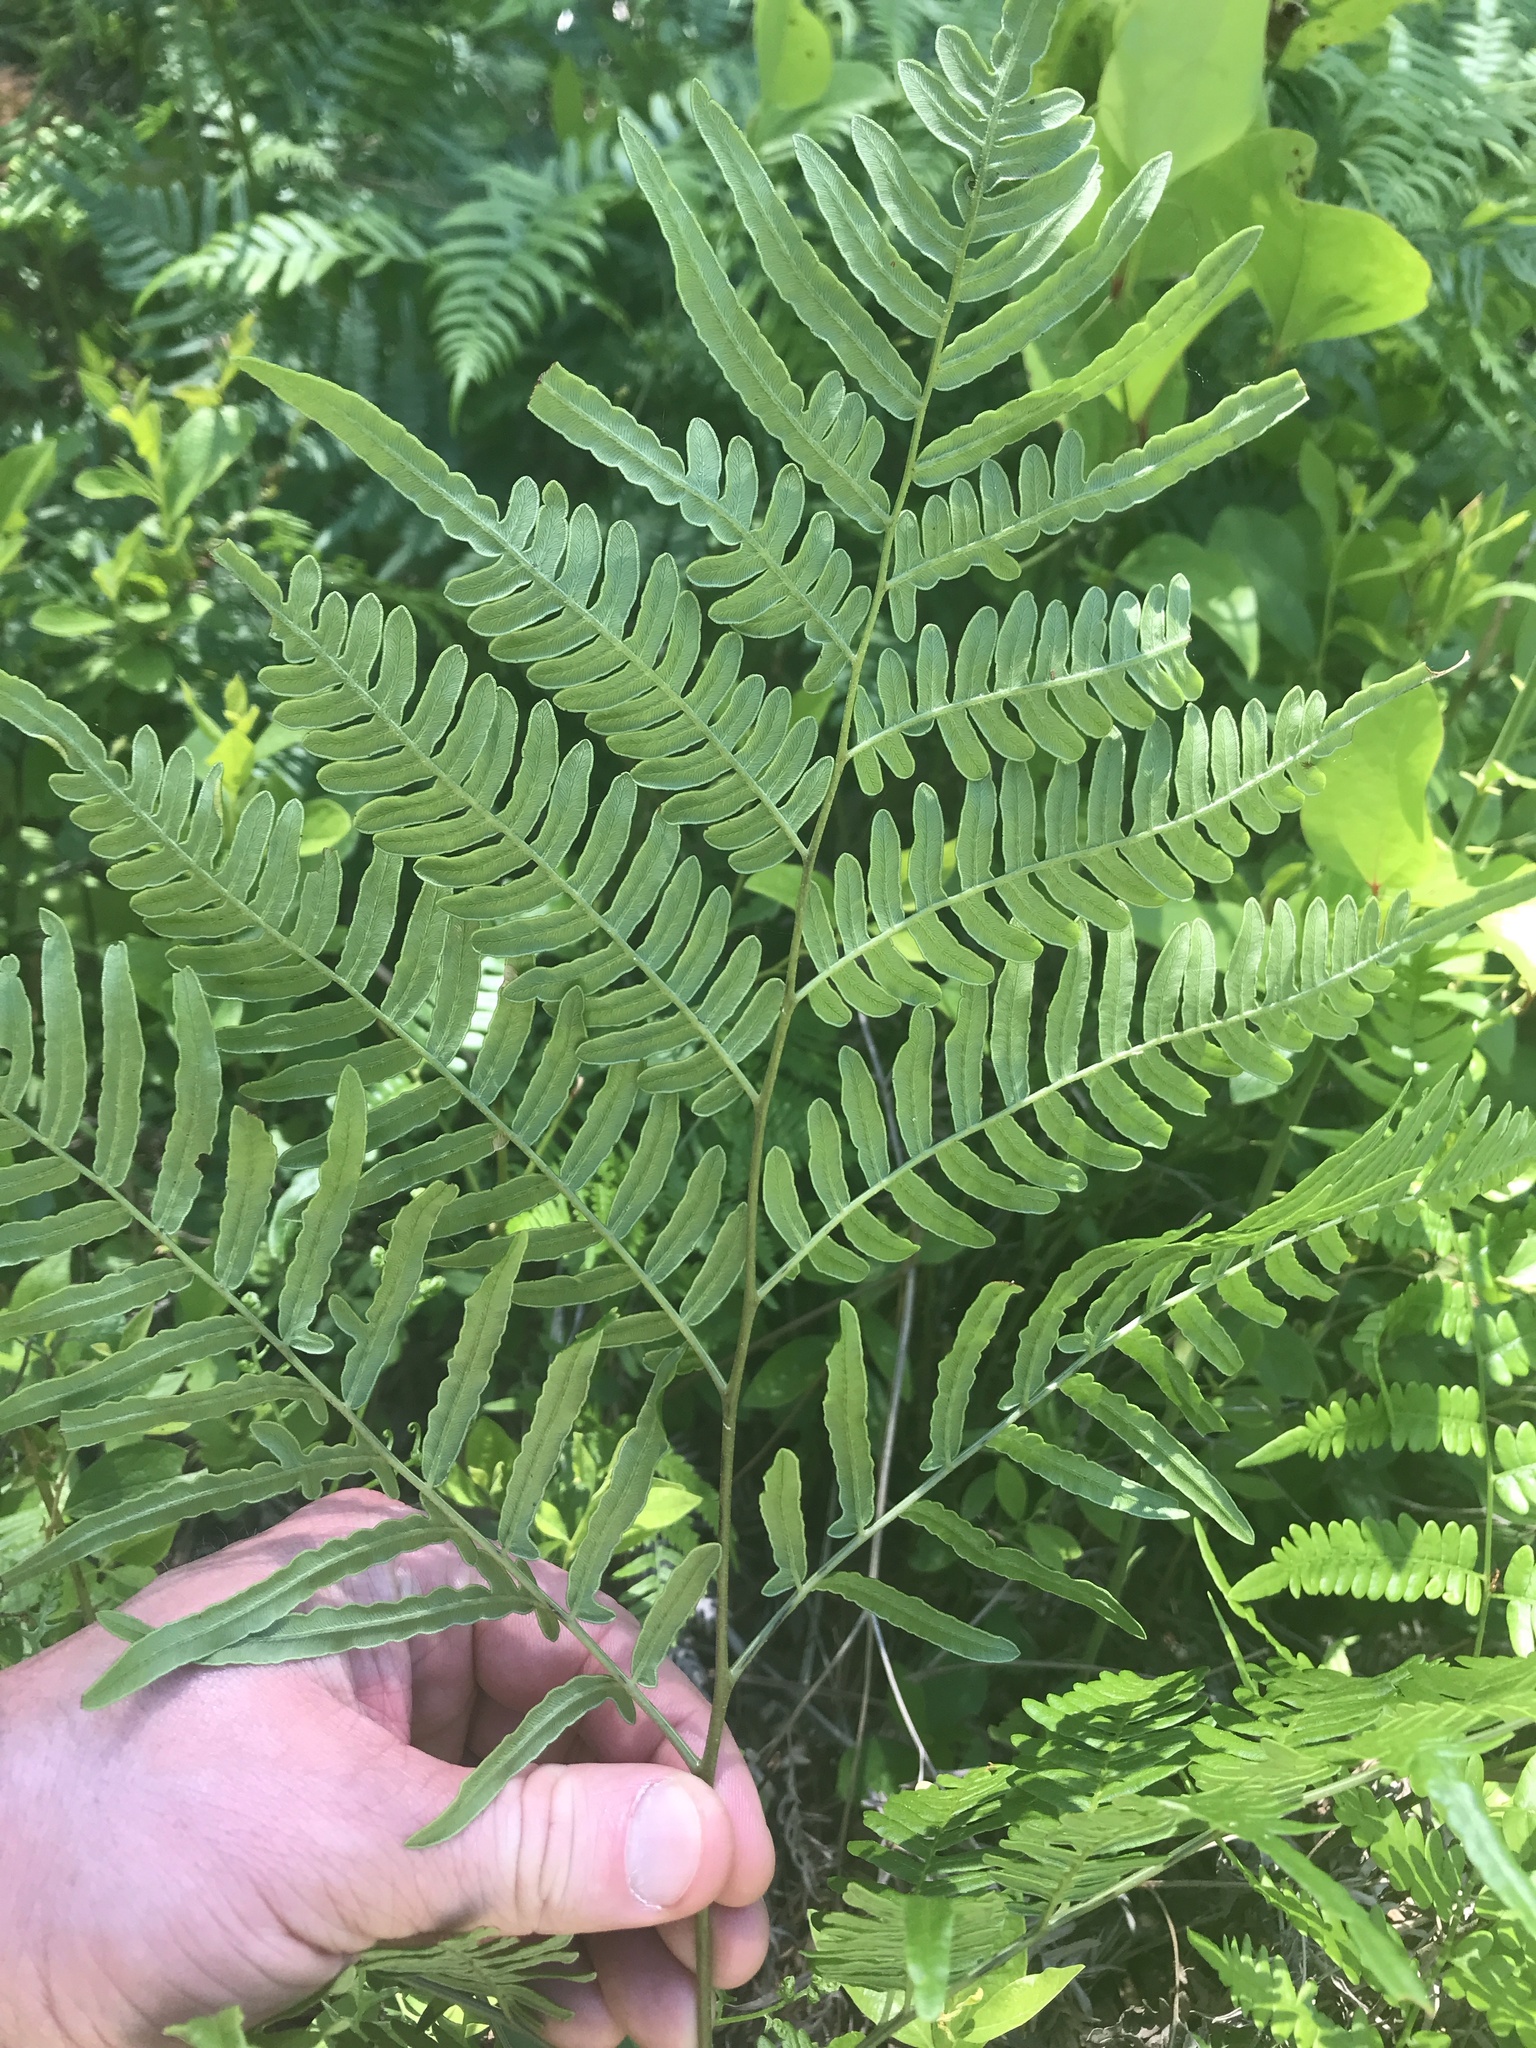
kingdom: Plantae
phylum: Tracheophyta
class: Polypodiopsida
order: Polypodiales
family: Dennstaedtiaceae
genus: Pteridium
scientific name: Pteridium aquilinum
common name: Bracken
